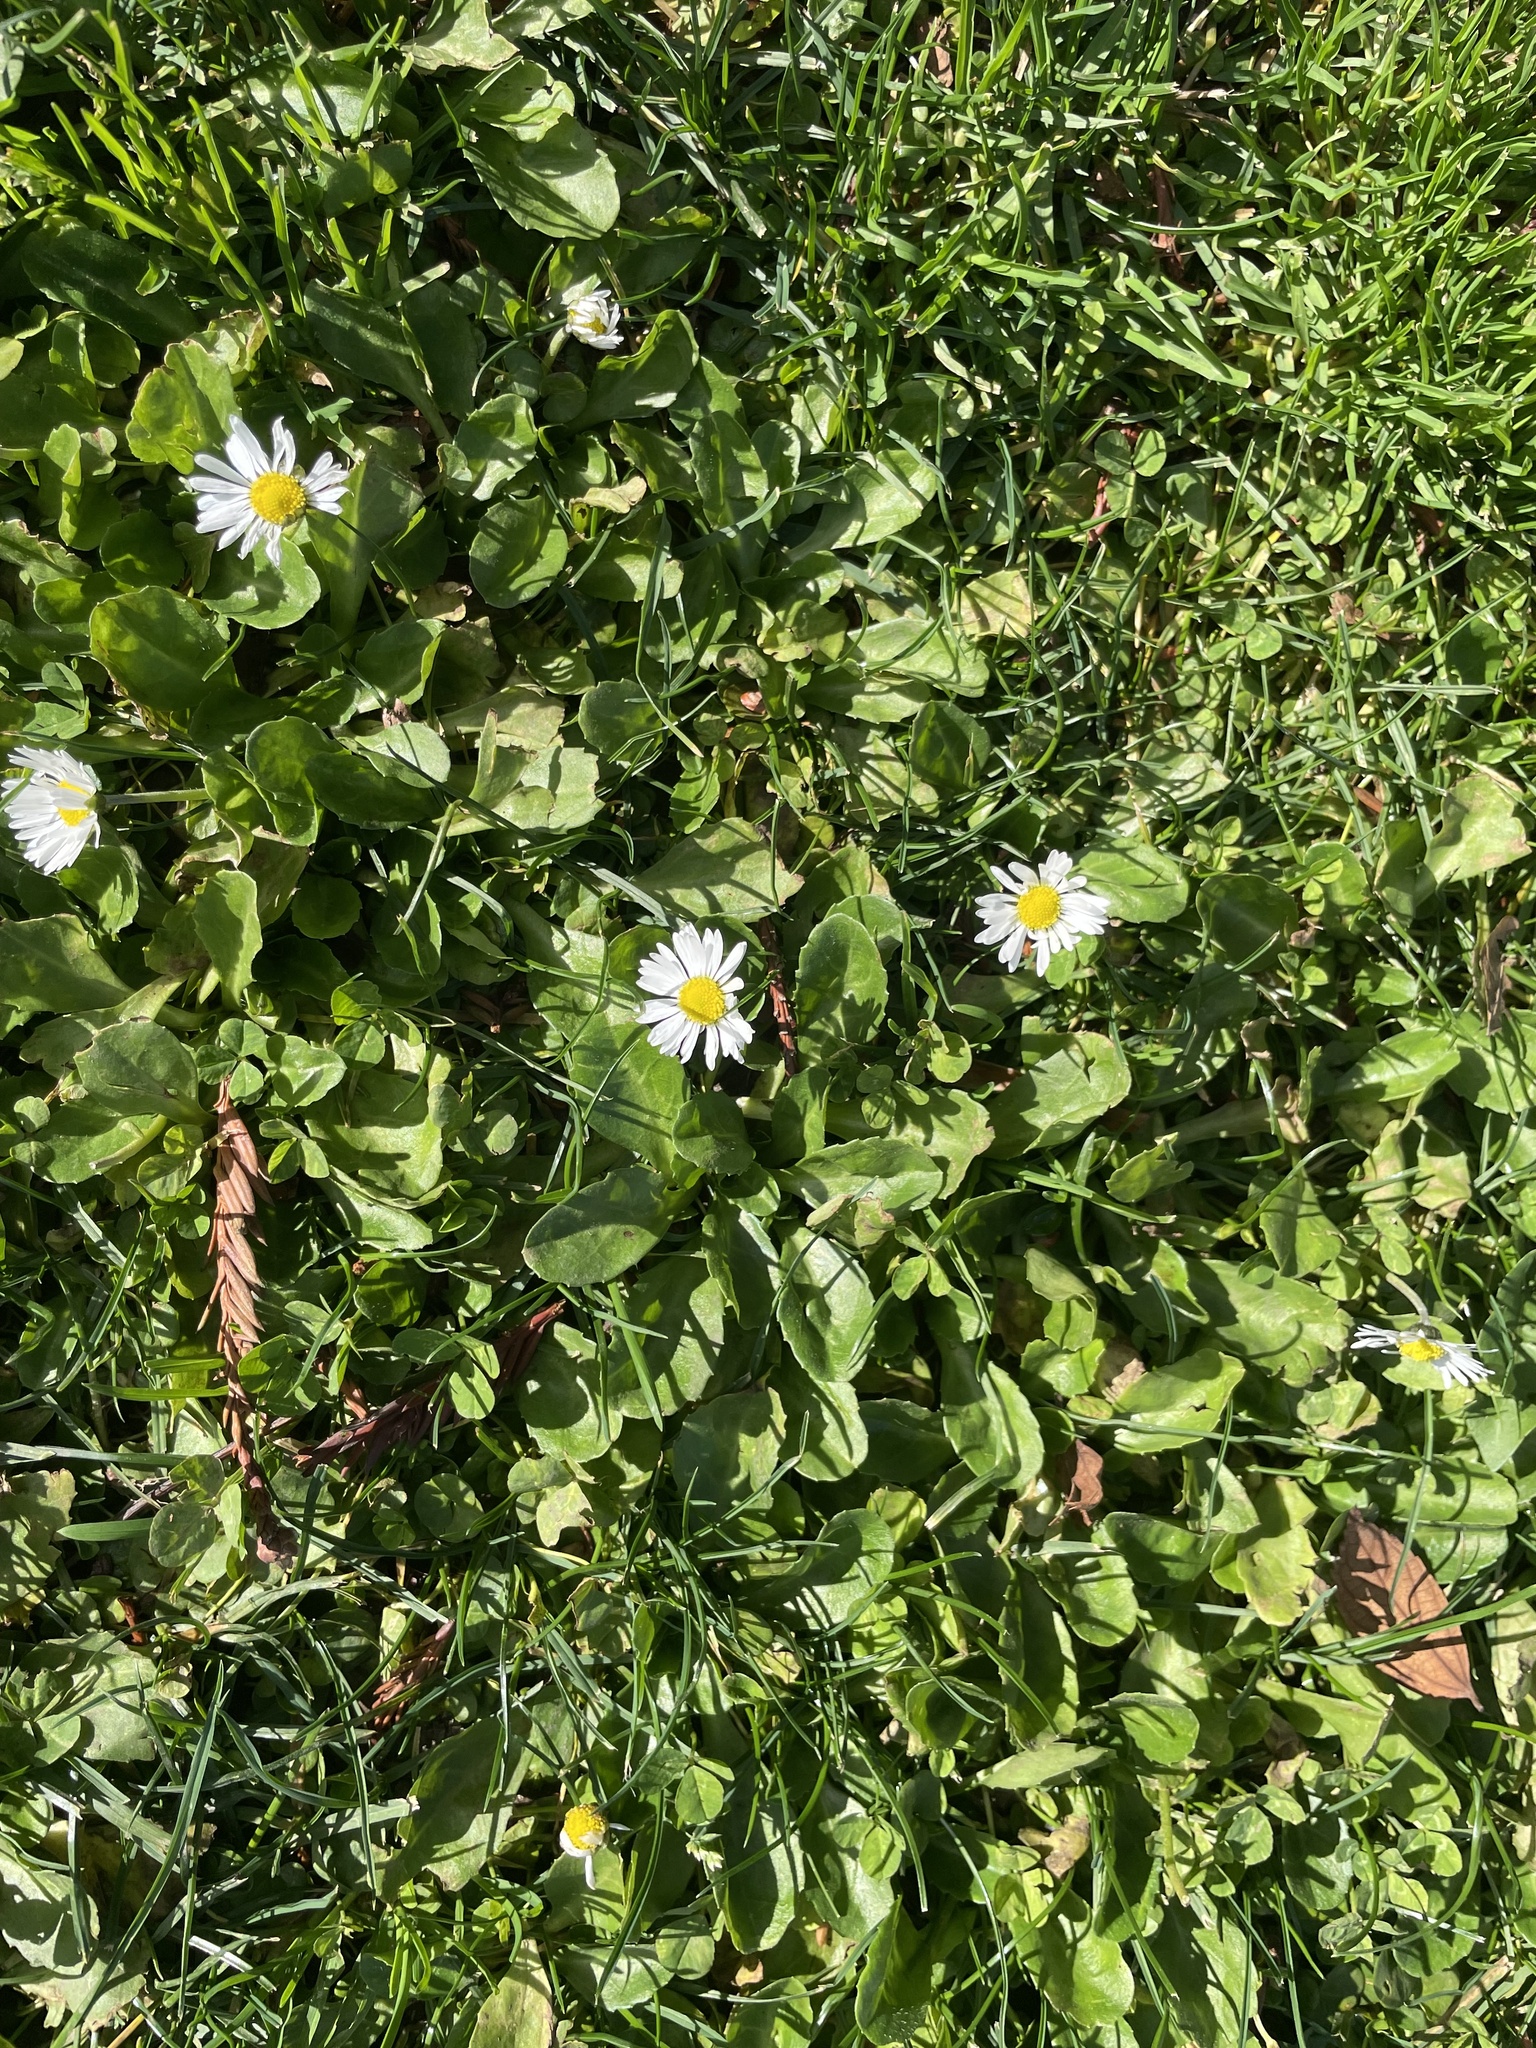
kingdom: Plantae
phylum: Tracheophyta
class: Magnoliopsida
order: Asterales
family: Asteraceae
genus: Bellis
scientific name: Bellis perennis
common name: Lawndaisy
